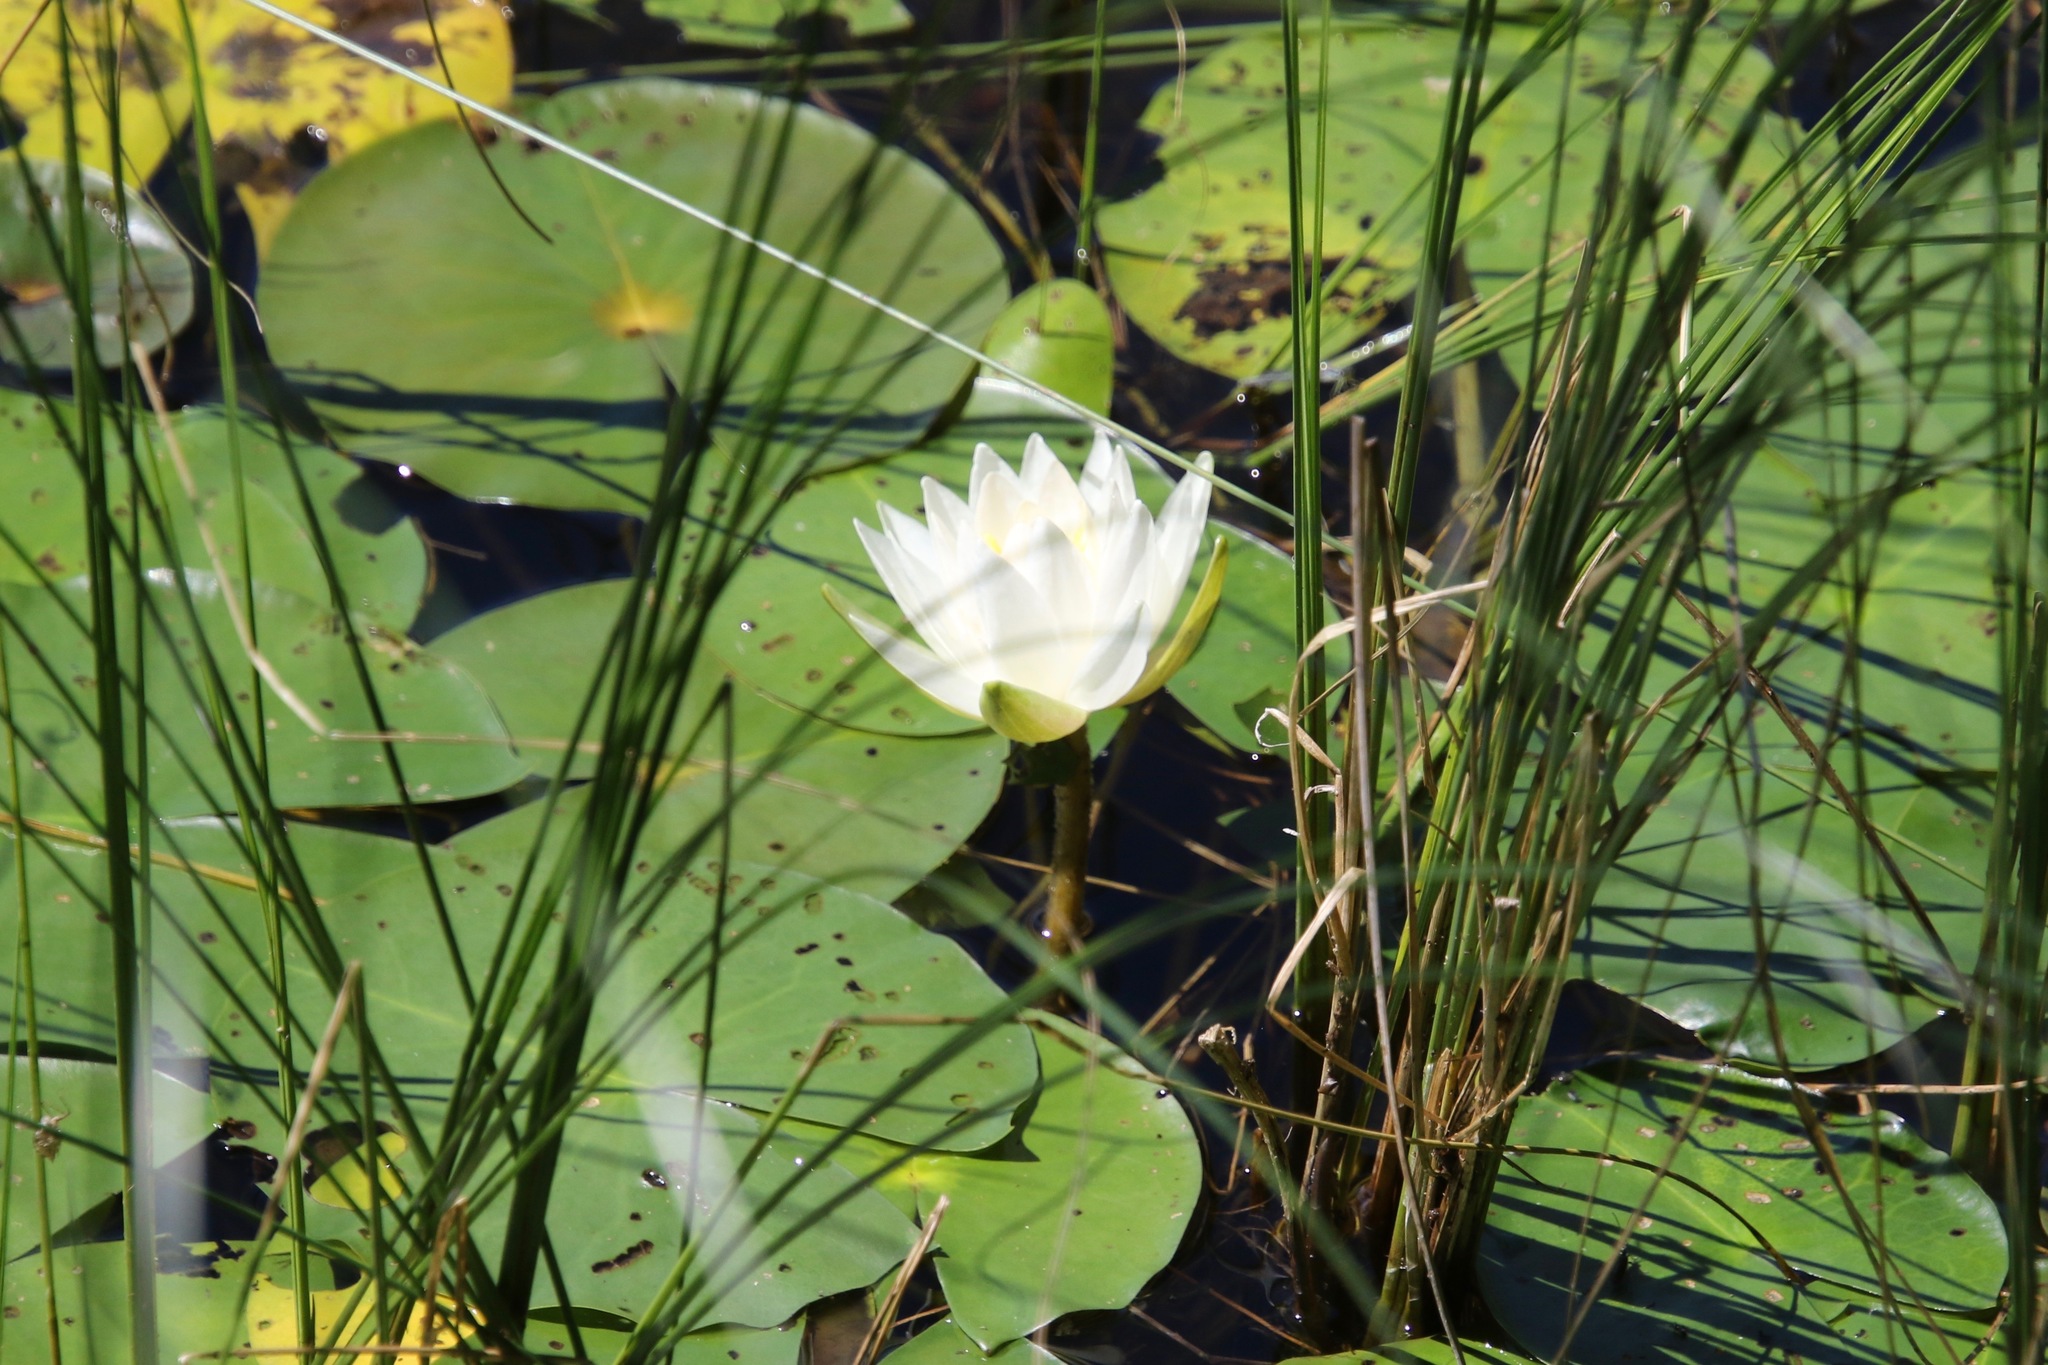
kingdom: Plantae
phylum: Tracheophyta
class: Magnoliopsida
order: Nymphaeales
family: Nymphaeaceae
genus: Nymphaea
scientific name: Nymphaea odorata
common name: Fragrant water-lily
